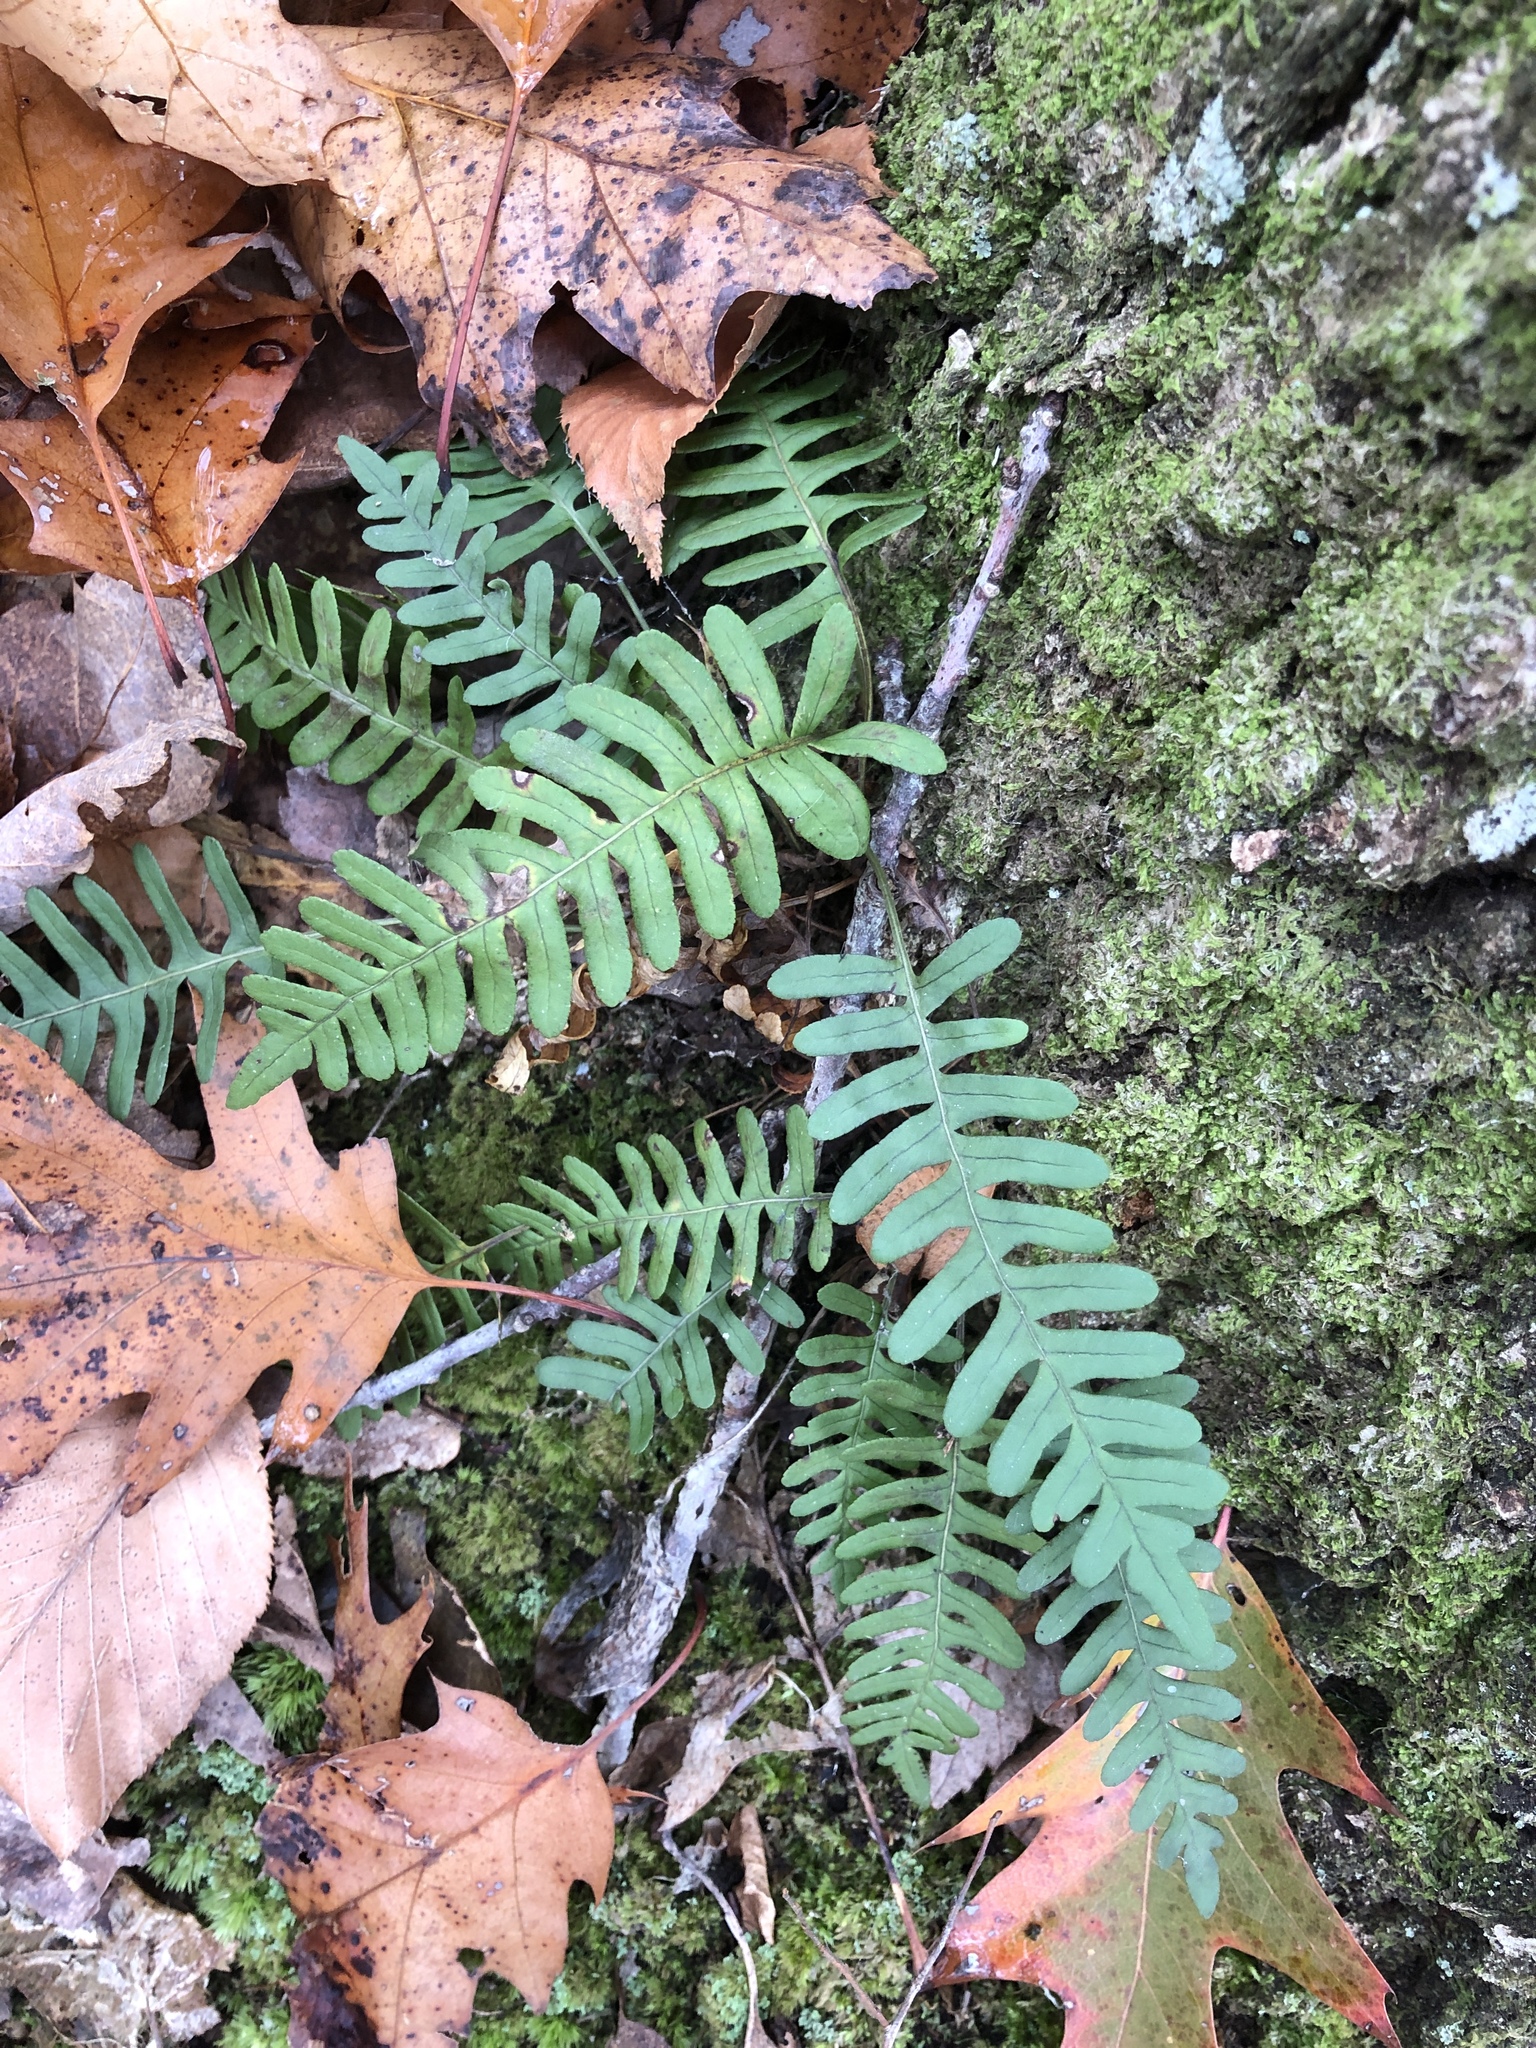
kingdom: Plantae
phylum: Tracheophyta
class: Polypodiopsida
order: Polypodiales
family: Polypodiaceae
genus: Polypodium
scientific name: Polypodium virginianum
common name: American wall fern
